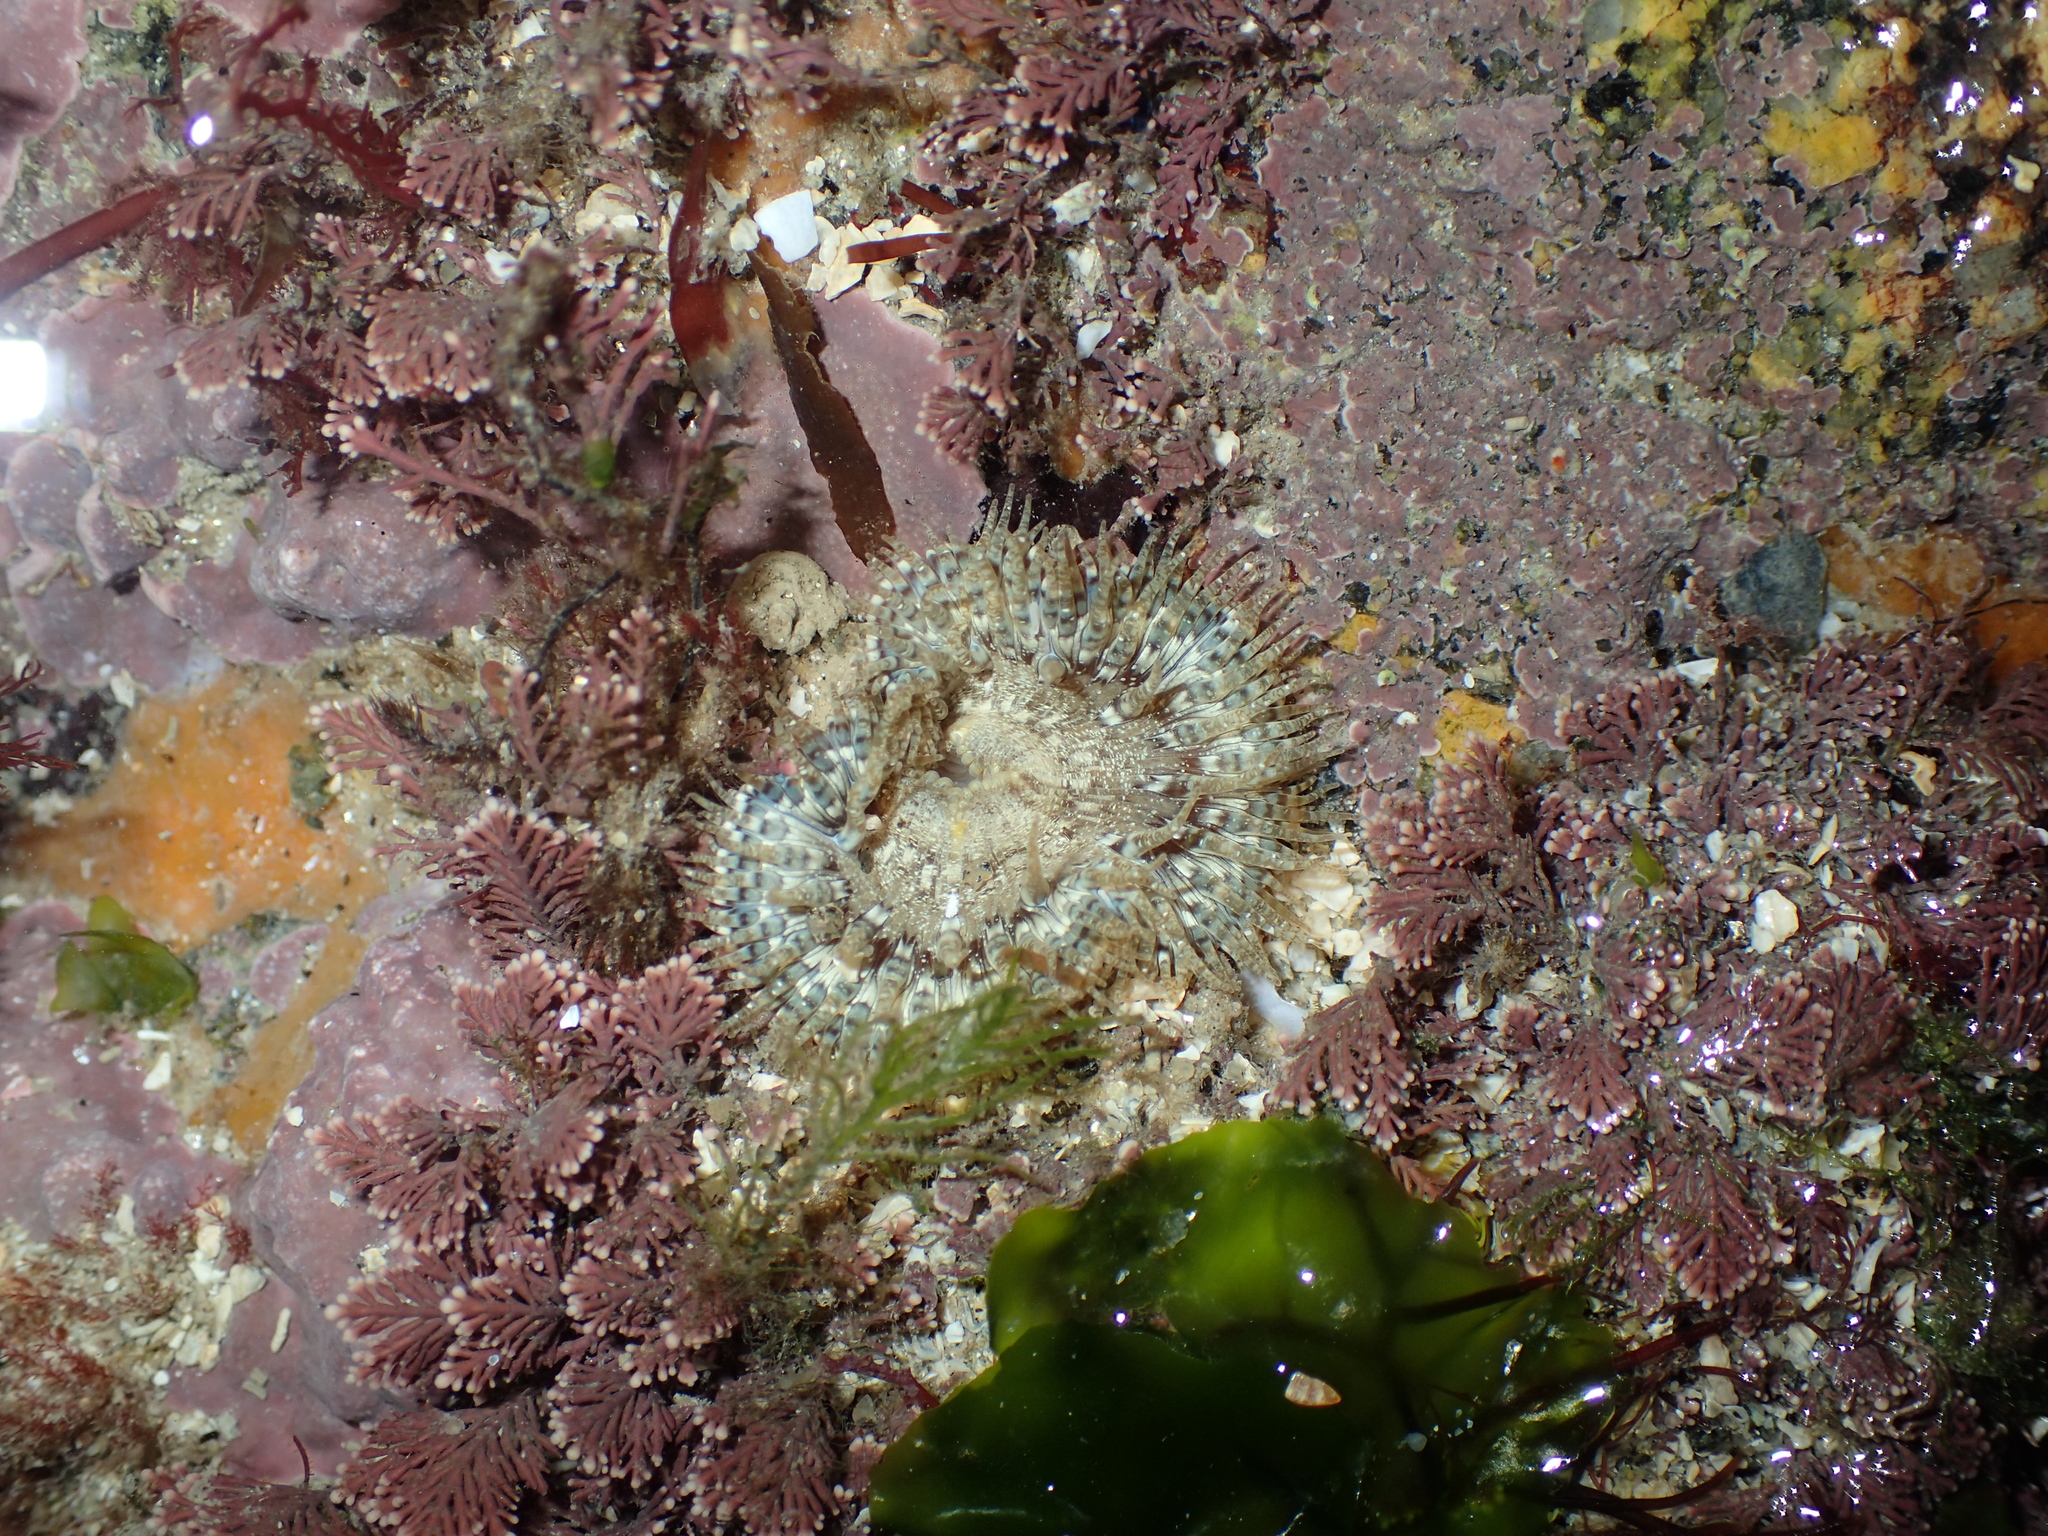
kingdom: Animalia
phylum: Cnidaria
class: Anthozoa
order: Actiniaria
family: Sagartiidae
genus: Cereus
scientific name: Cereus pedunculatus
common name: Daisy anemone
